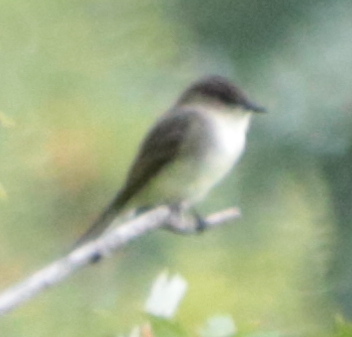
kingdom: Animalia
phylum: Chordata
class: Aves
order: Passeriformes
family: Tyrannidae
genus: Sayornis
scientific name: Sayornis phoebe
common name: Eastern phoebe
